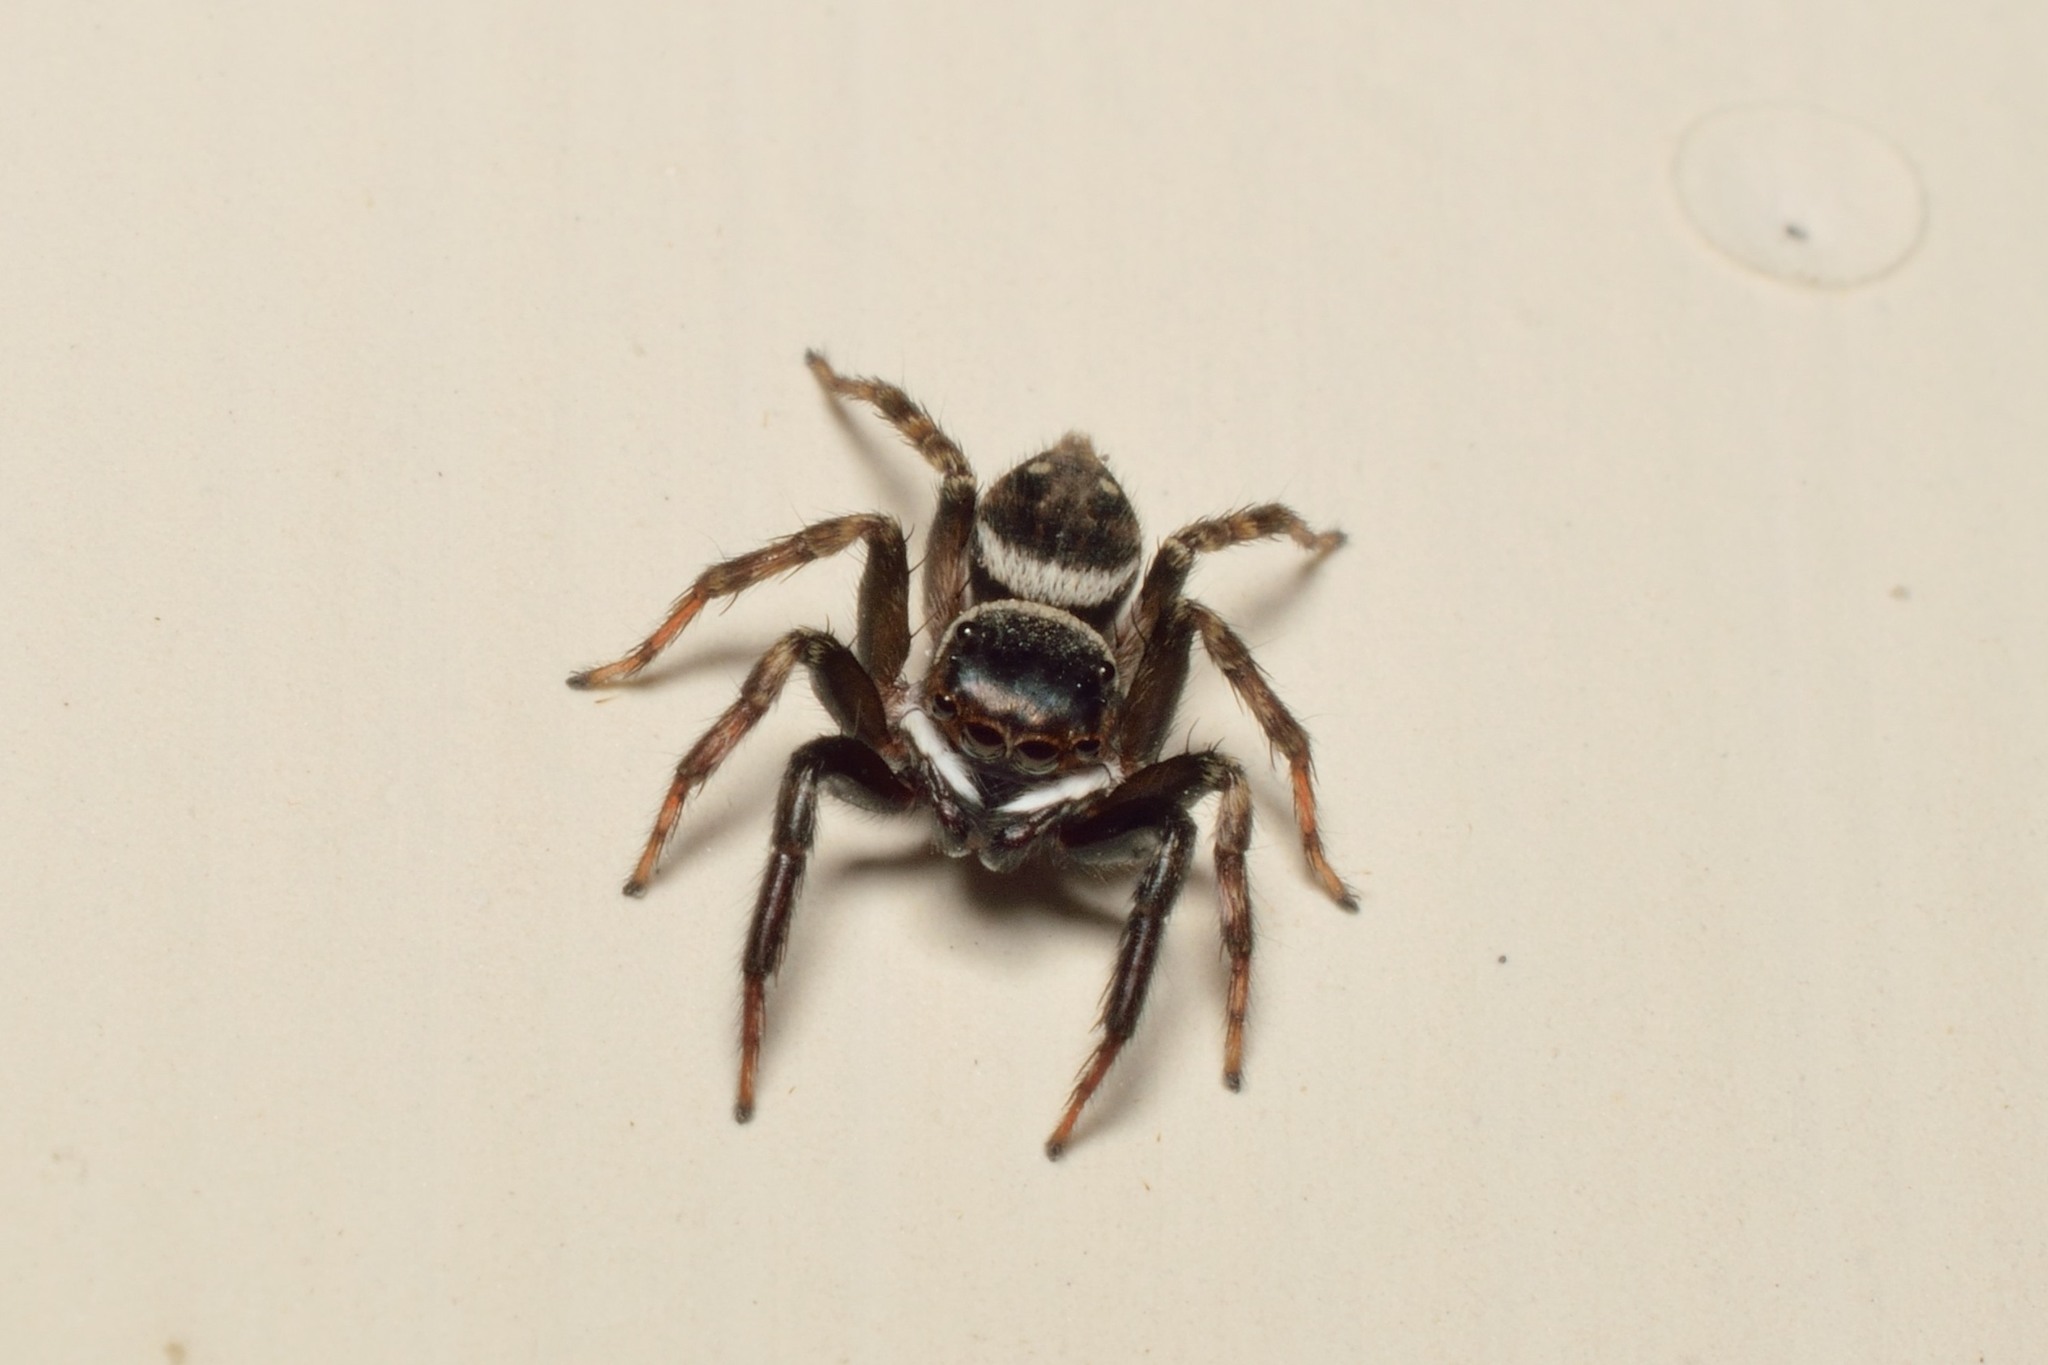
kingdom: Animalia
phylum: Arthropoda
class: Arachnida
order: Araneae
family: Salticidae
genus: Hasarius
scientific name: Hasarius adansoni
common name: Jumping spider
